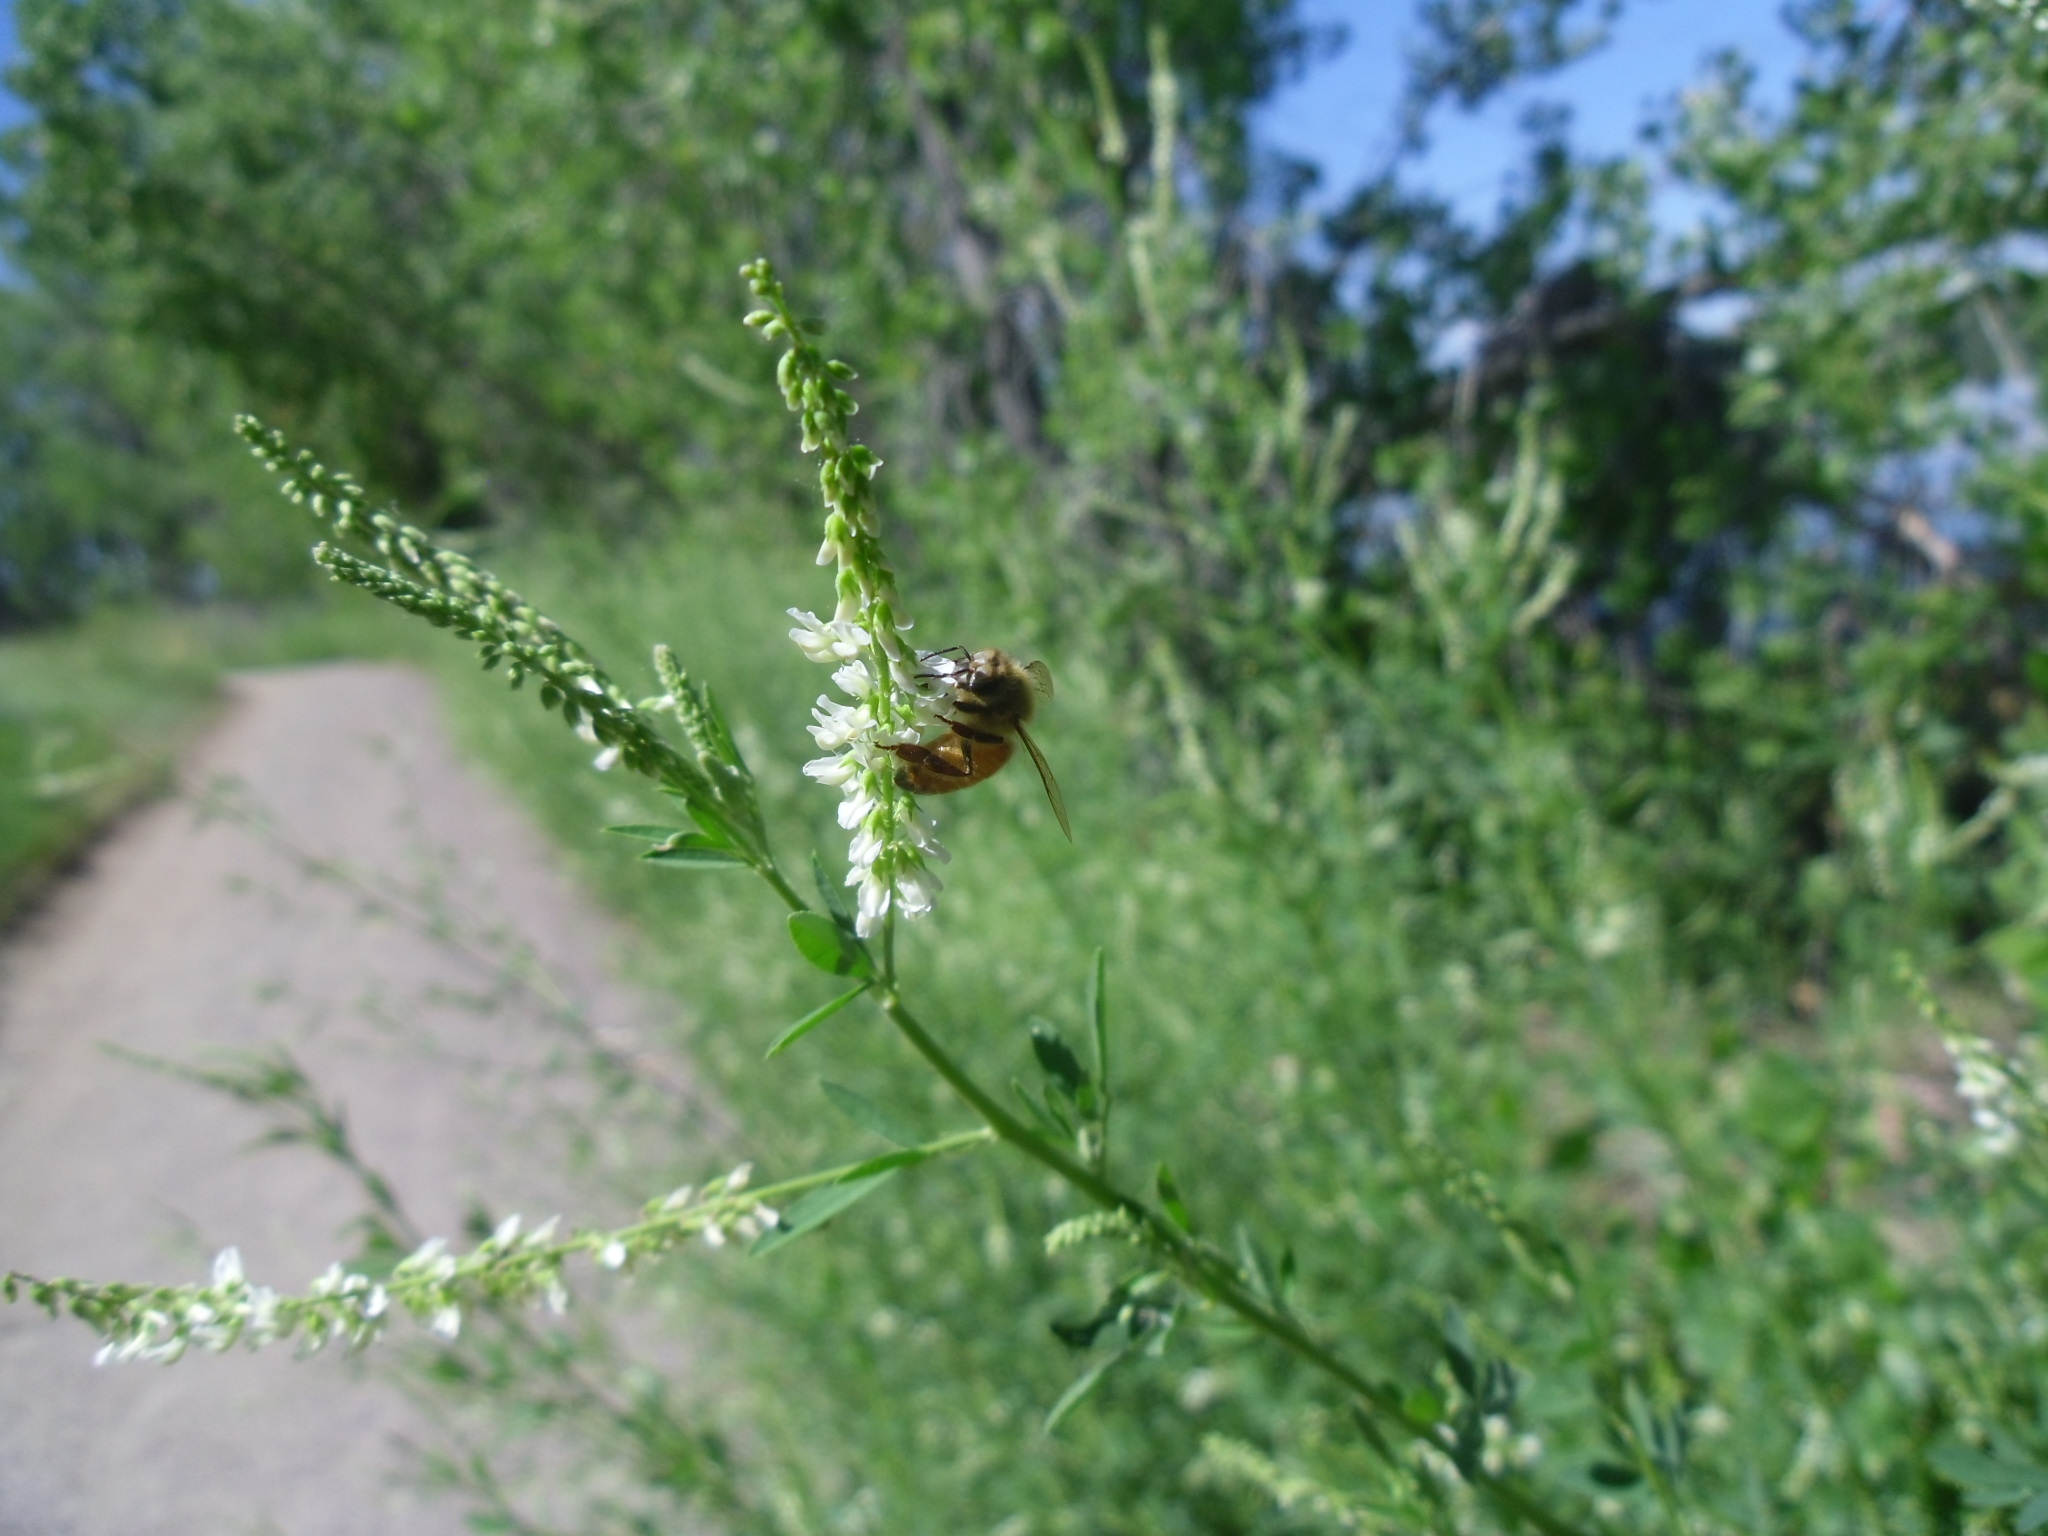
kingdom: Animalia
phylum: Arthropoda
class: Insecta
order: Hymenoptera
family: Apidae
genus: Apis
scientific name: Apis mellifera
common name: Honey bee
